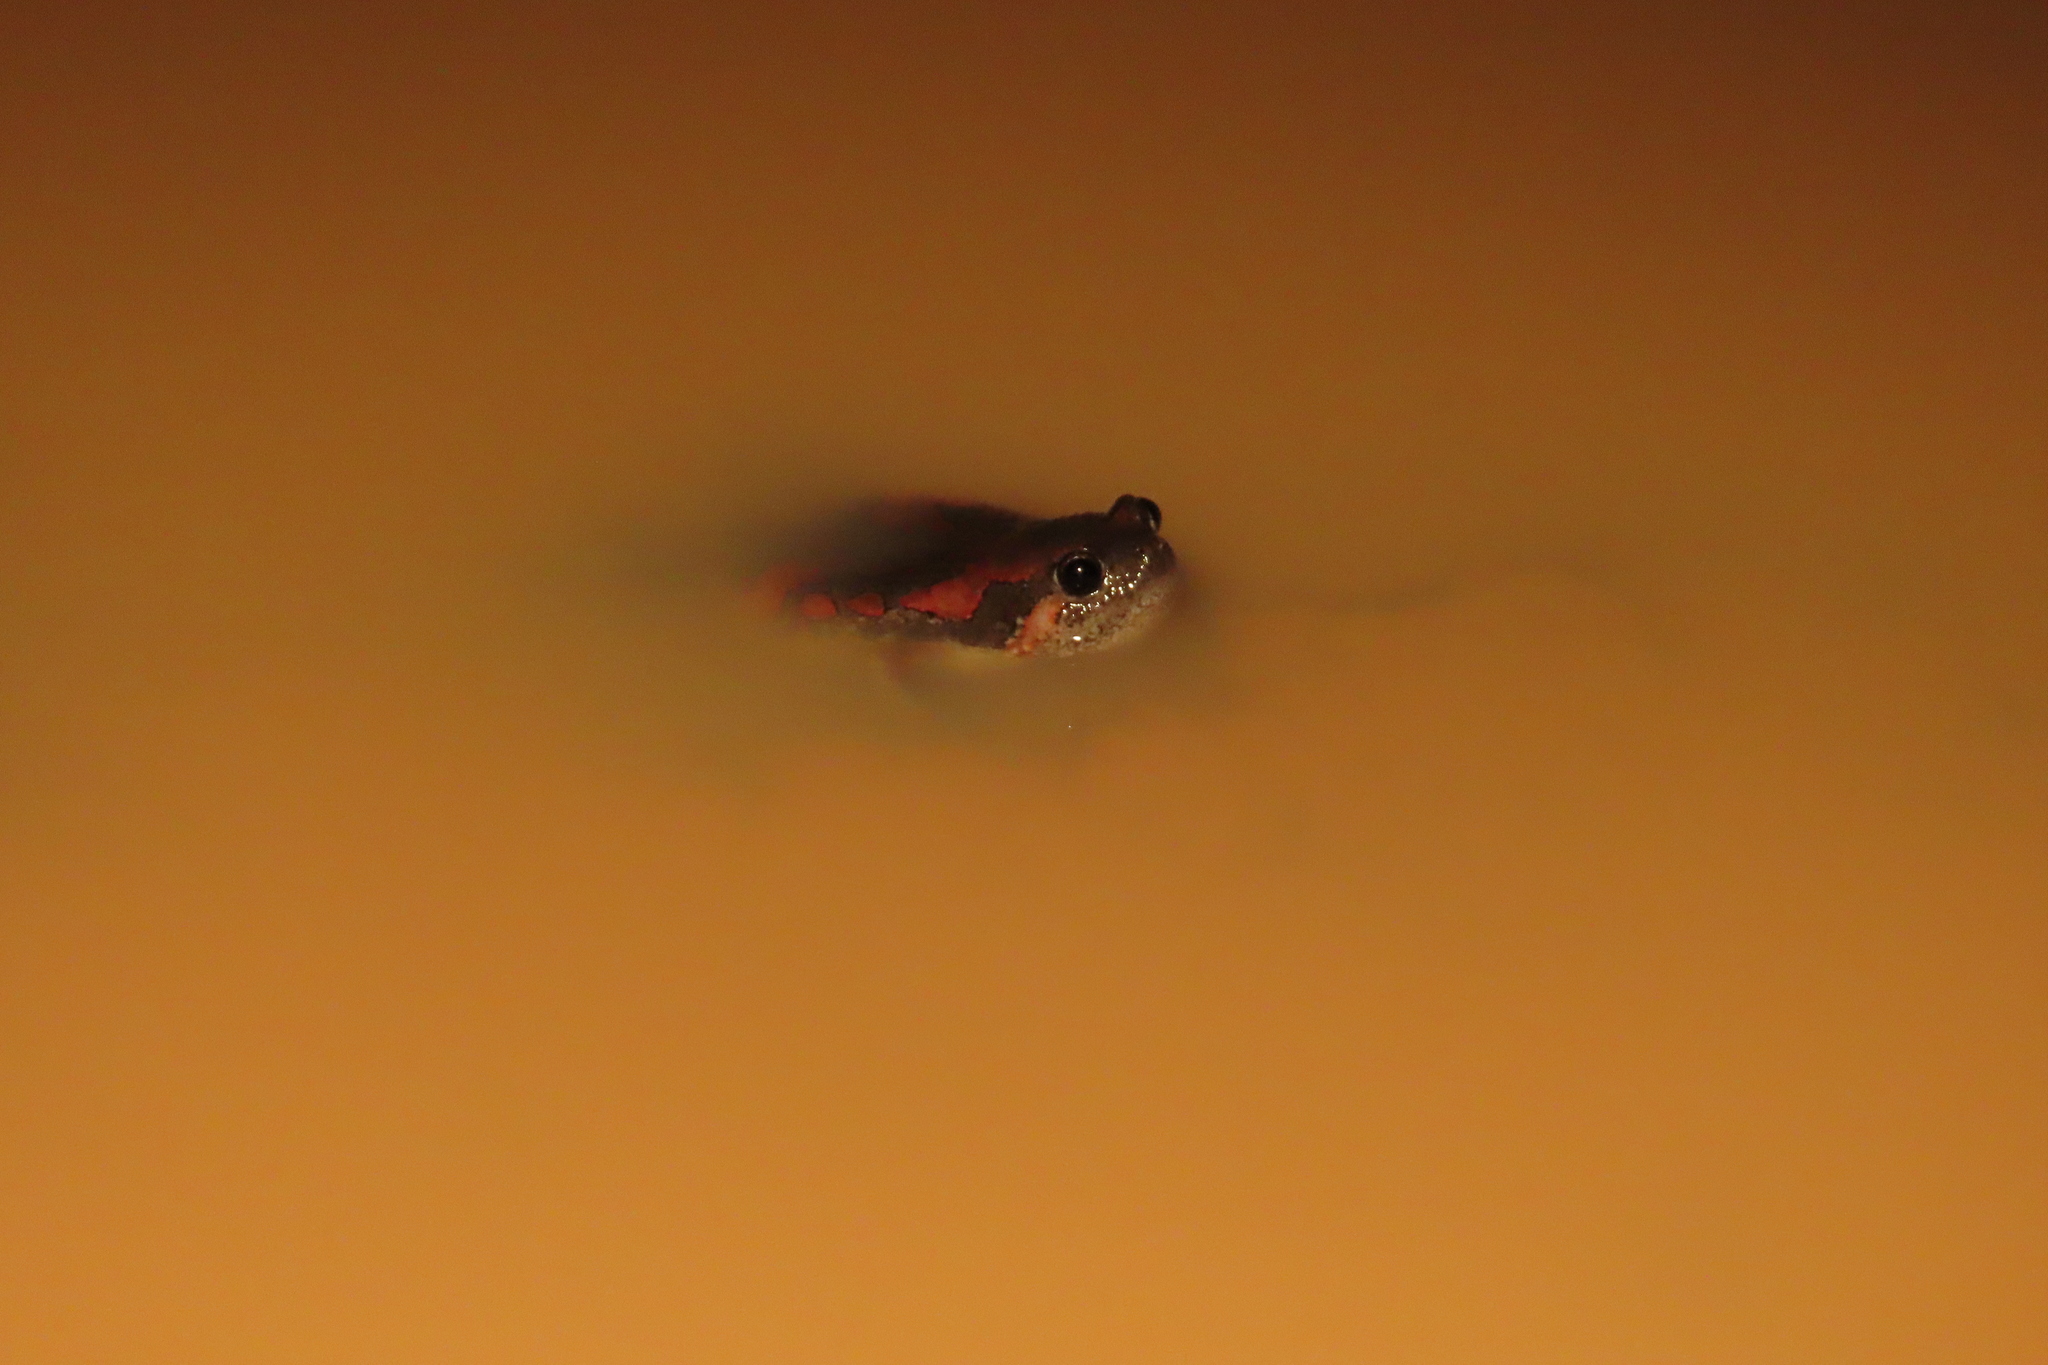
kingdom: Animalia
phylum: Chordata
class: Amphibia
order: Anura
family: Microhylidae
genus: Uperodon
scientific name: Uperodon taprobanicus
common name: Ceylon kaloula
